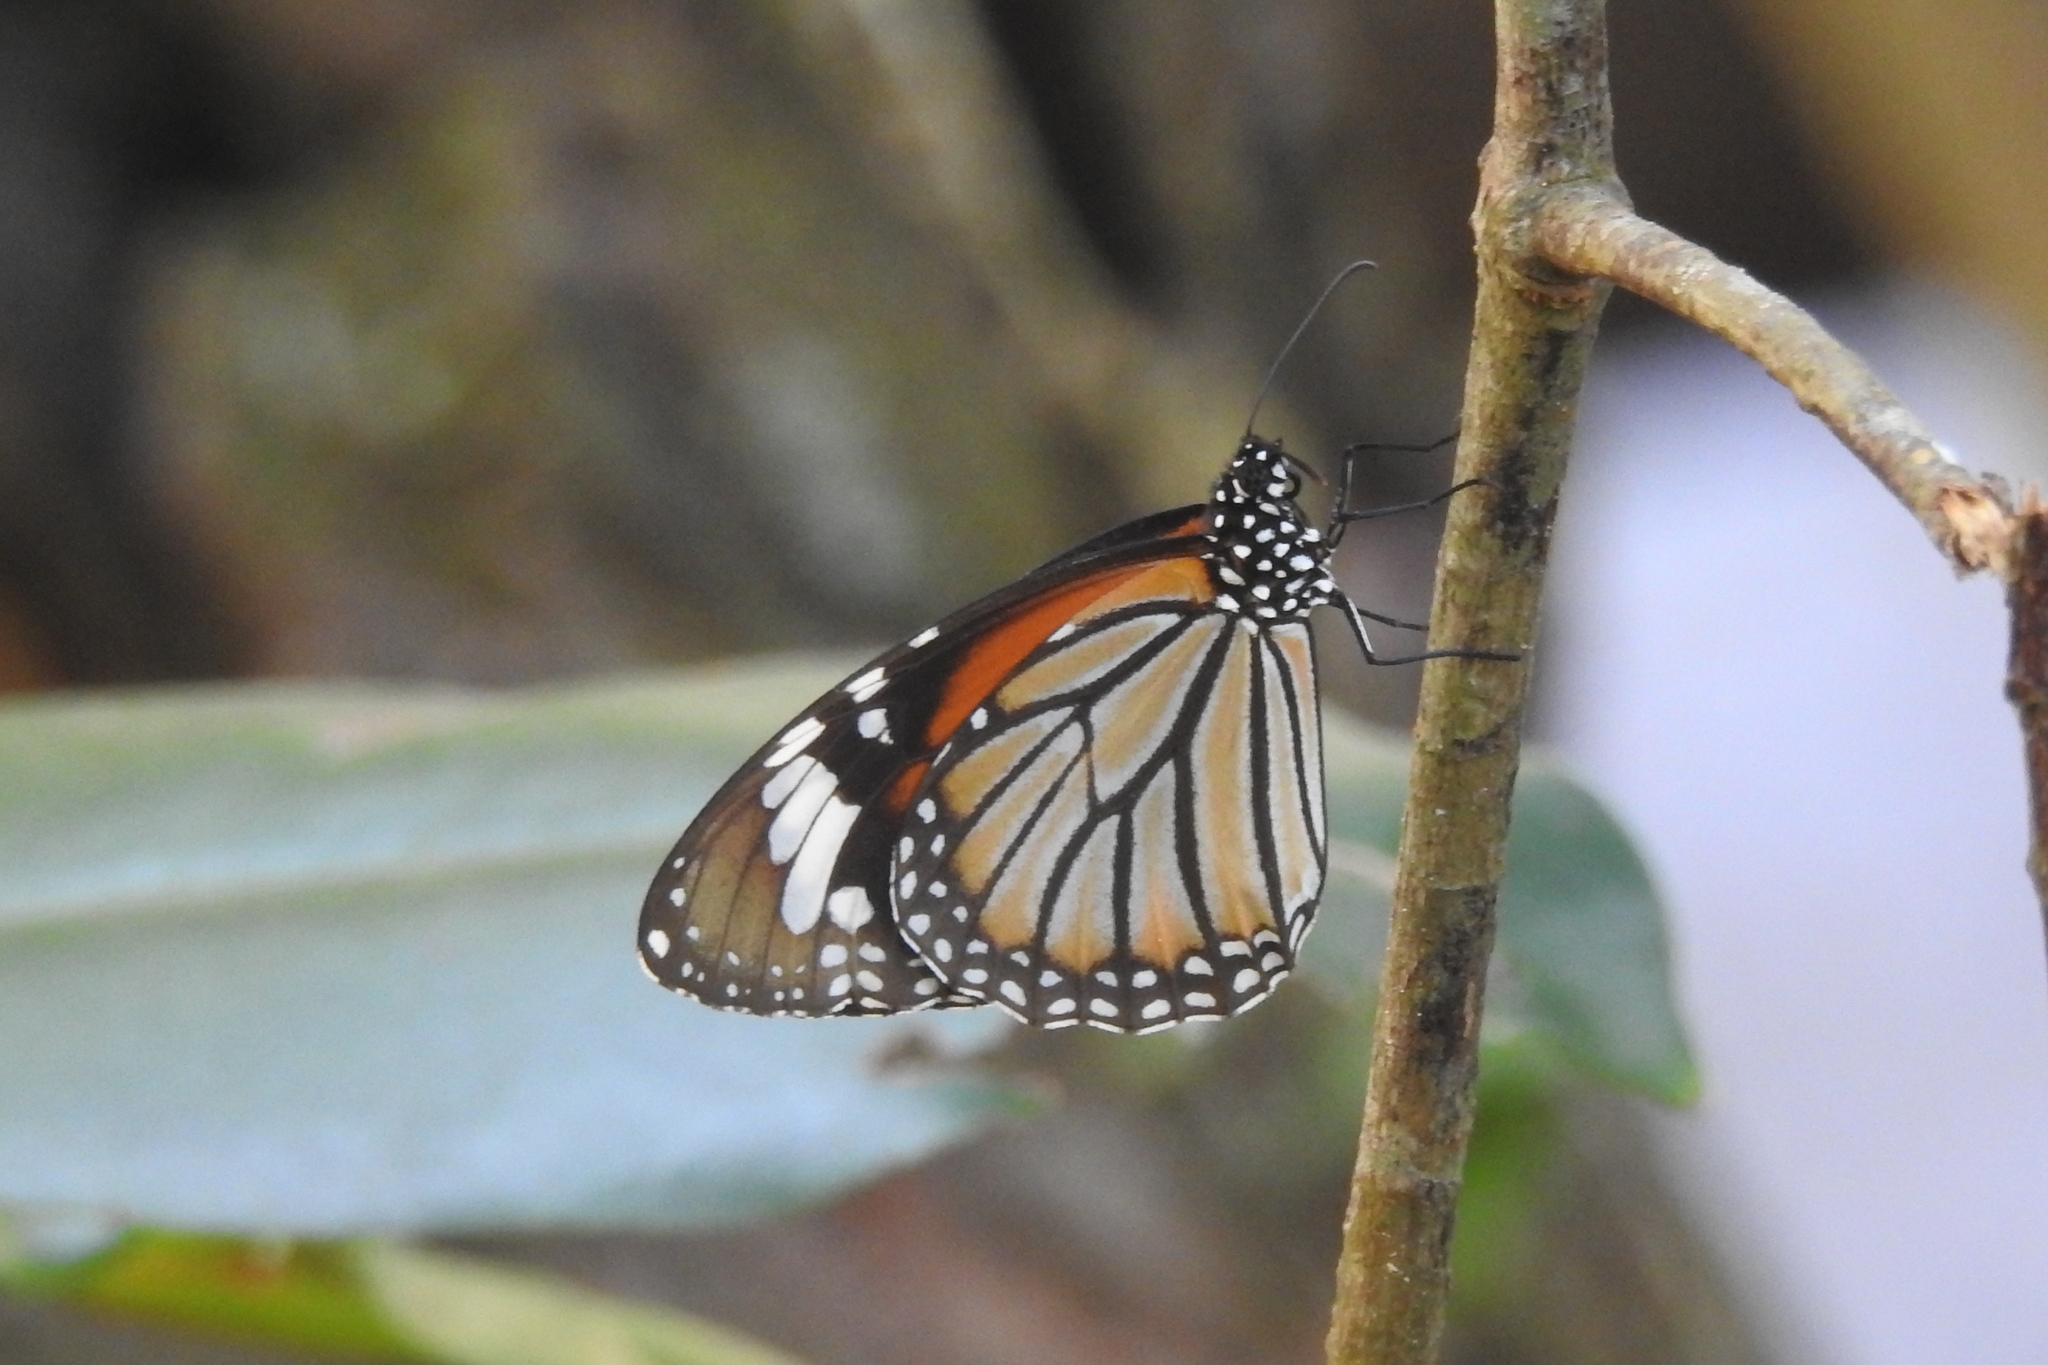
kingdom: Animalia
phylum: Arthropoda
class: Insecta
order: Lepidoptera
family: Nymphalidae
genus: Danaus
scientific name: Danaus genutia
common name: Common tiger butterfly
